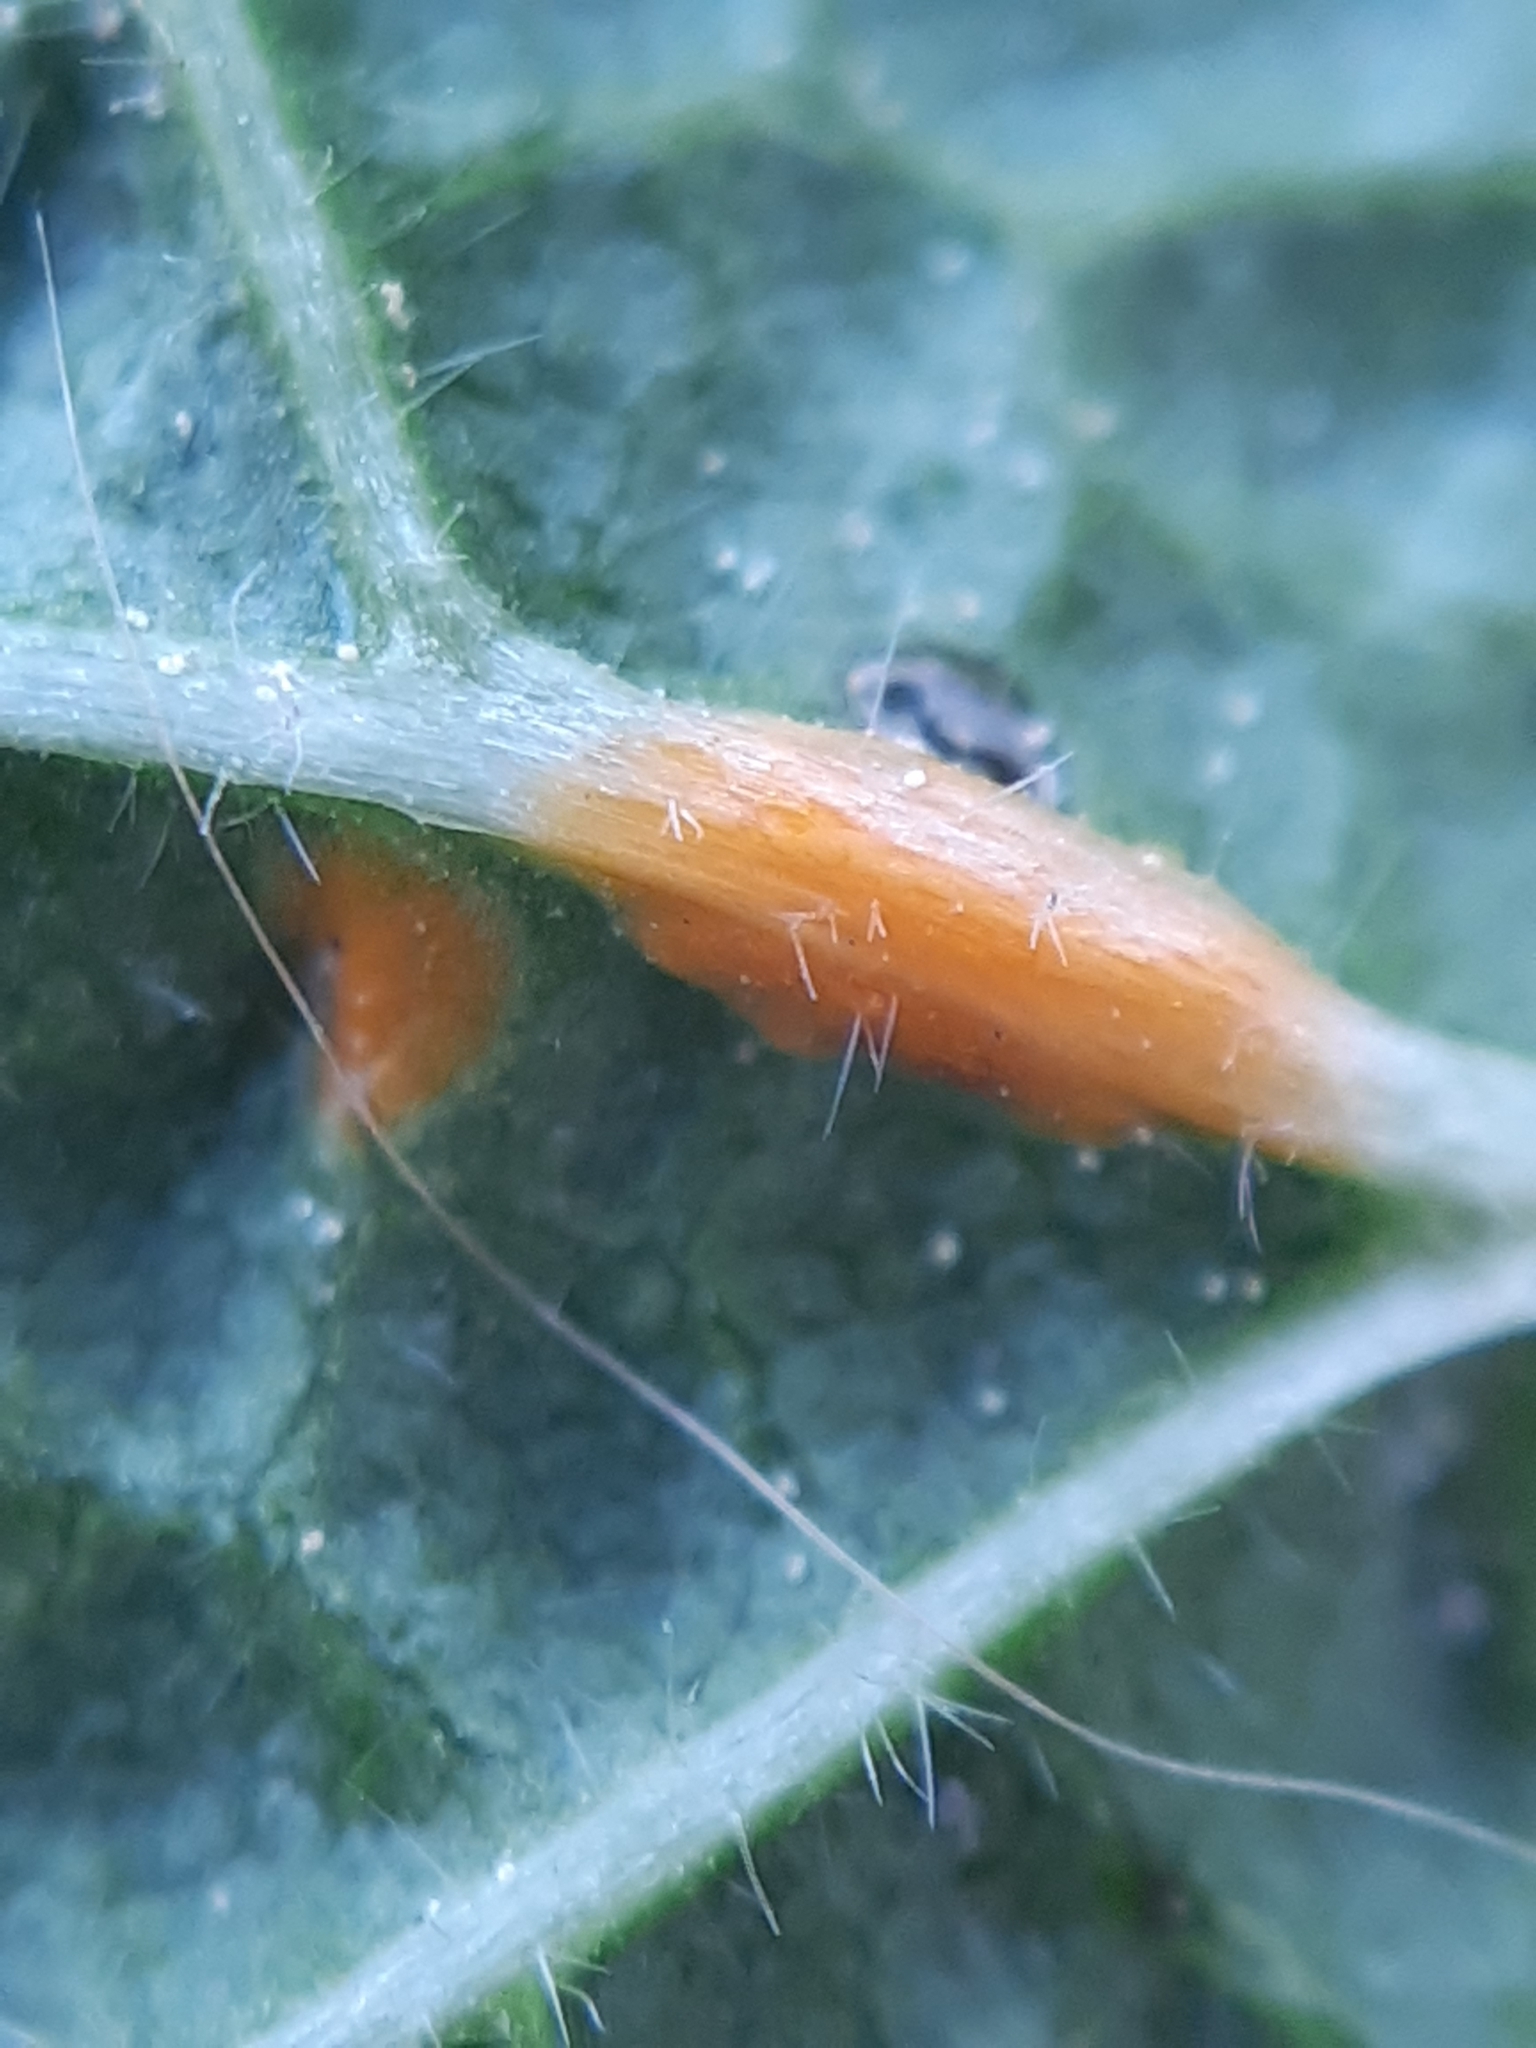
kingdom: Fungi
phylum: Basidiomycota
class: Pucciniomycetes
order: Pucciniales
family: Pucciniaceae
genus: Puccinia
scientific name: Puccinia malvacearum
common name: Hollyhock rust
